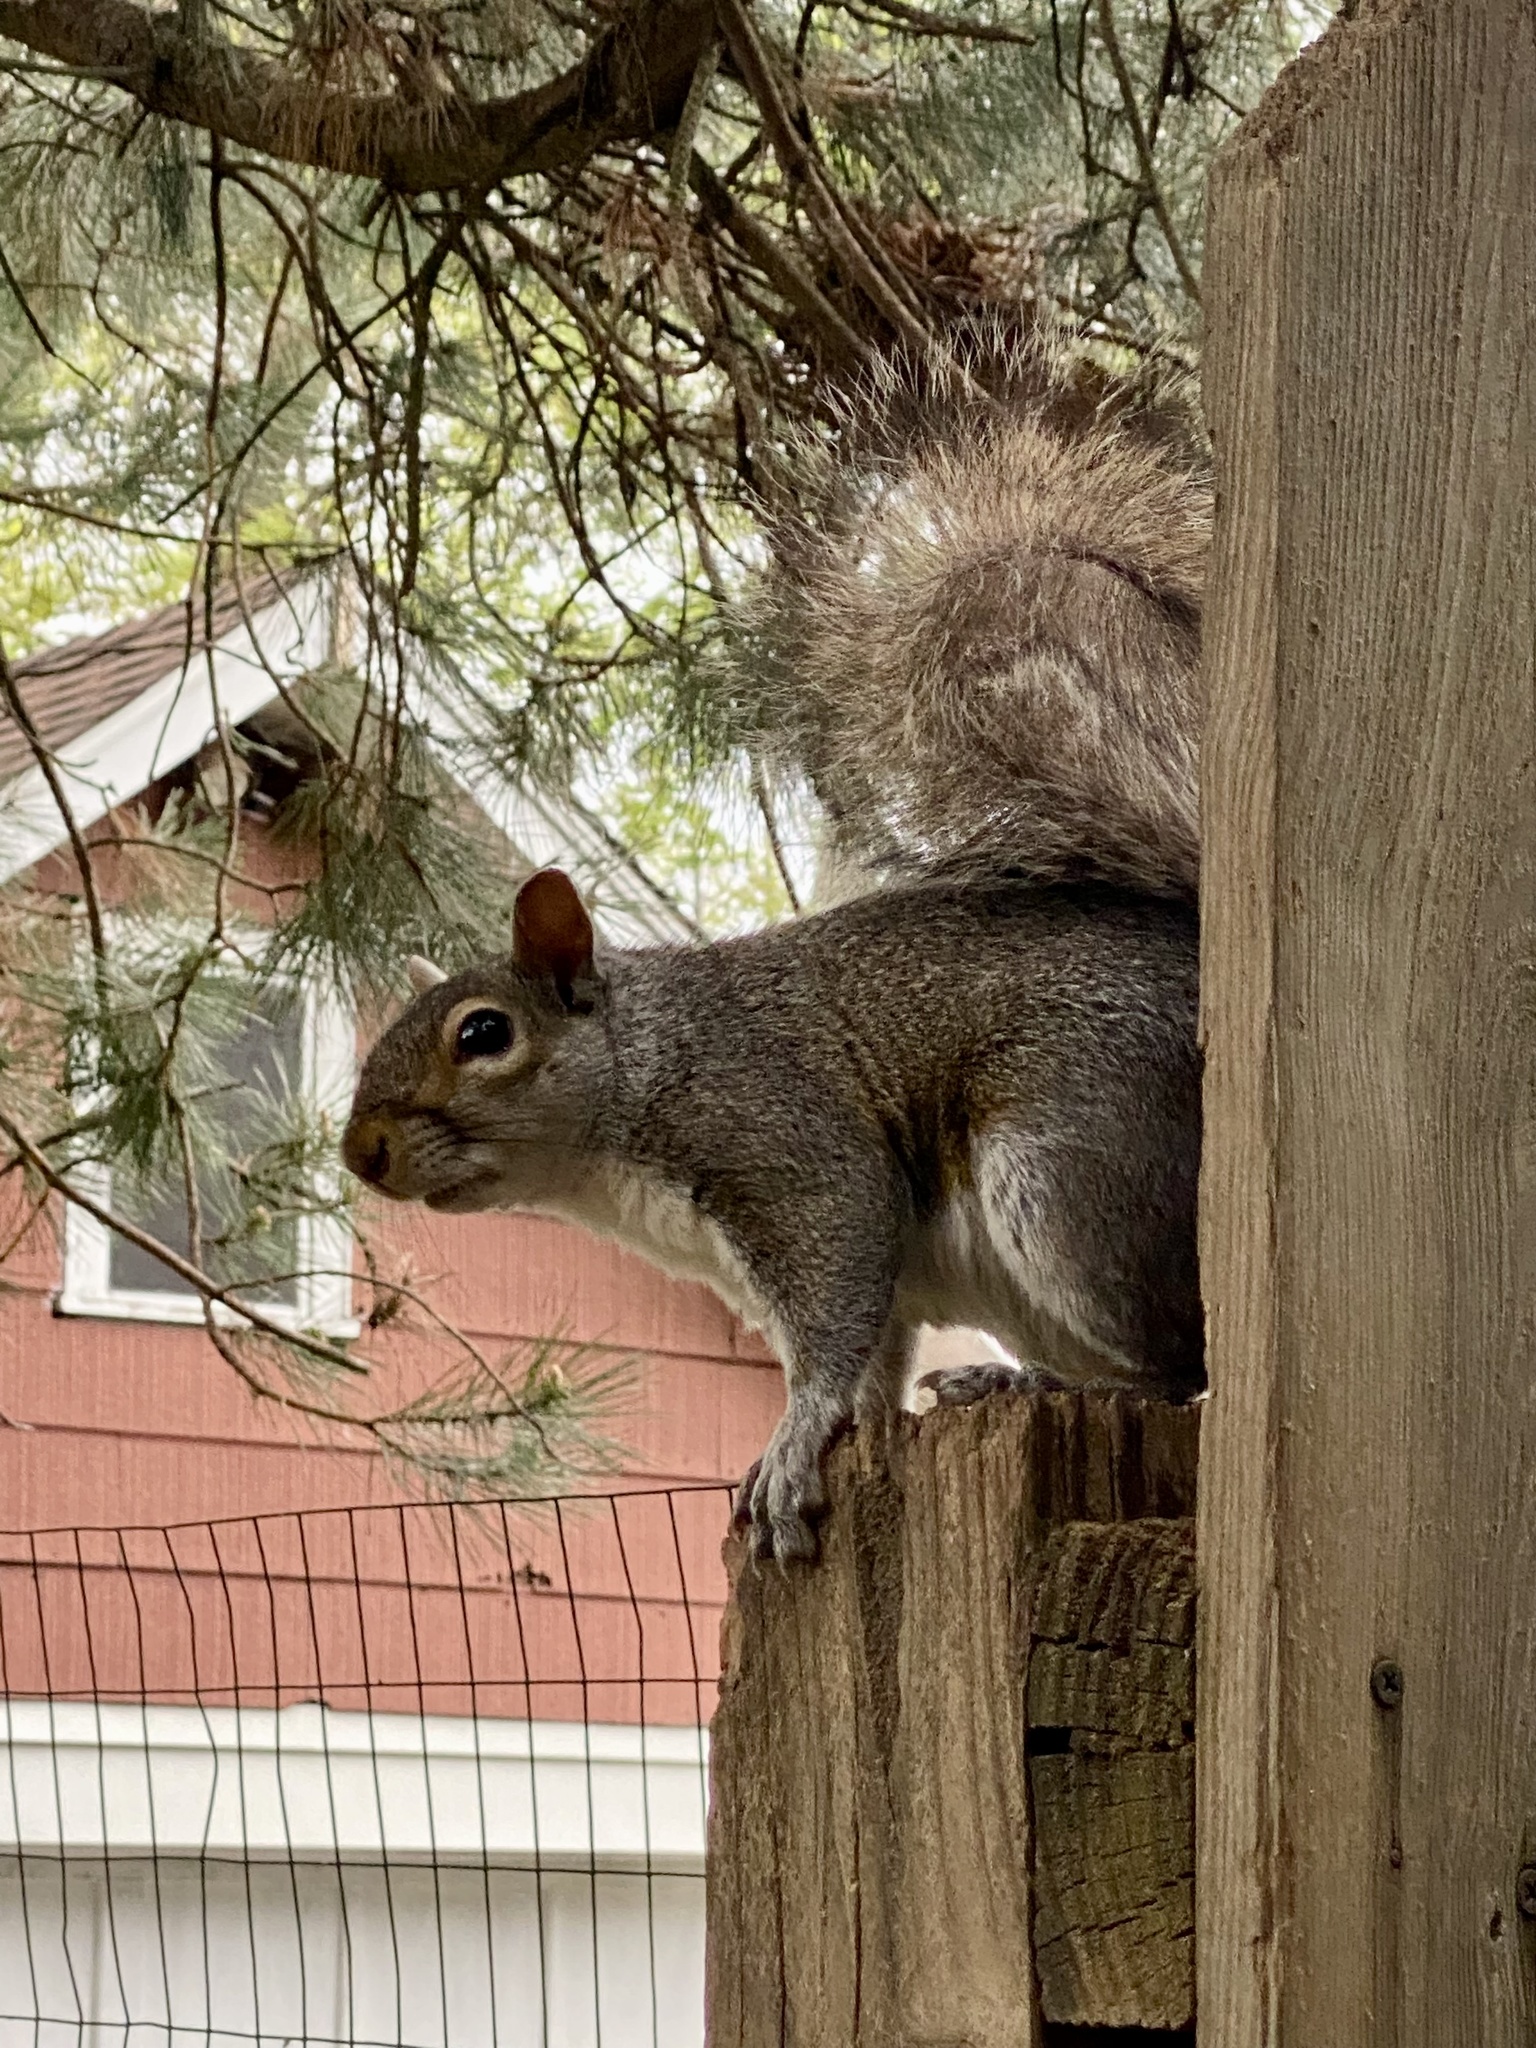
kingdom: Animalia
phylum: Chordata
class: Mammalia
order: Rodentia
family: Sciuridae
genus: Sciurus
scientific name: Sciurus carolinensis
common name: Eastern gray squirrel
